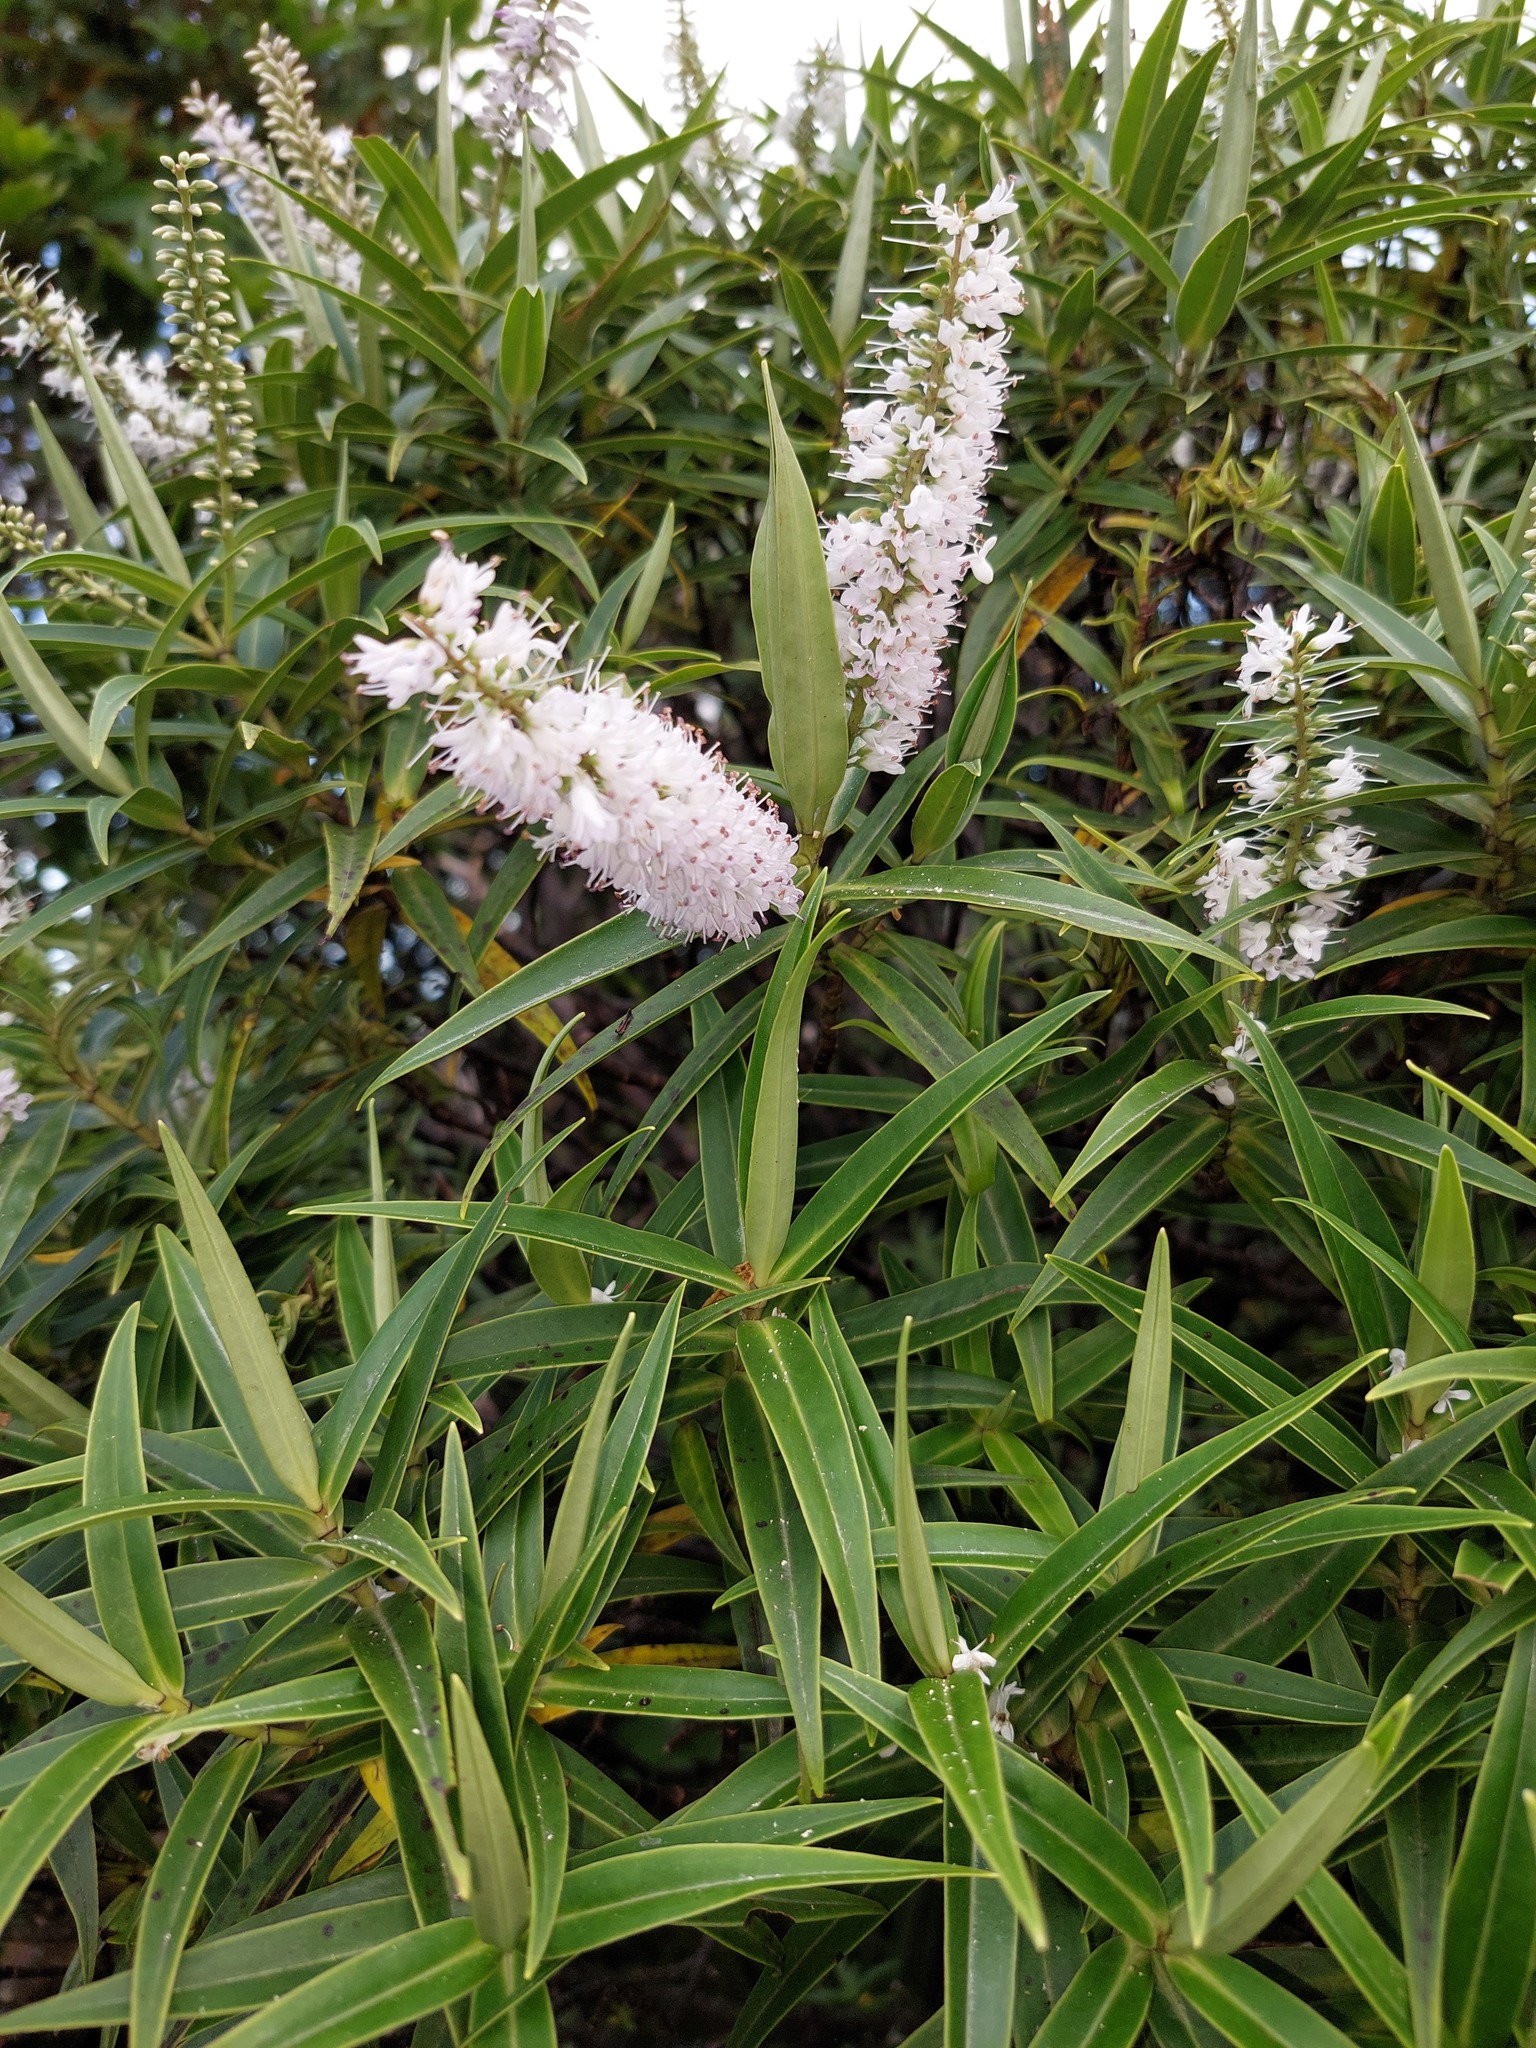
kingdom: Plantae
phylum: Tracheophyta
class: Magnoliopsida
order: Lamiales
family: Plantaginaceae
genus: Veronica
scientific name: Veronica stricta
